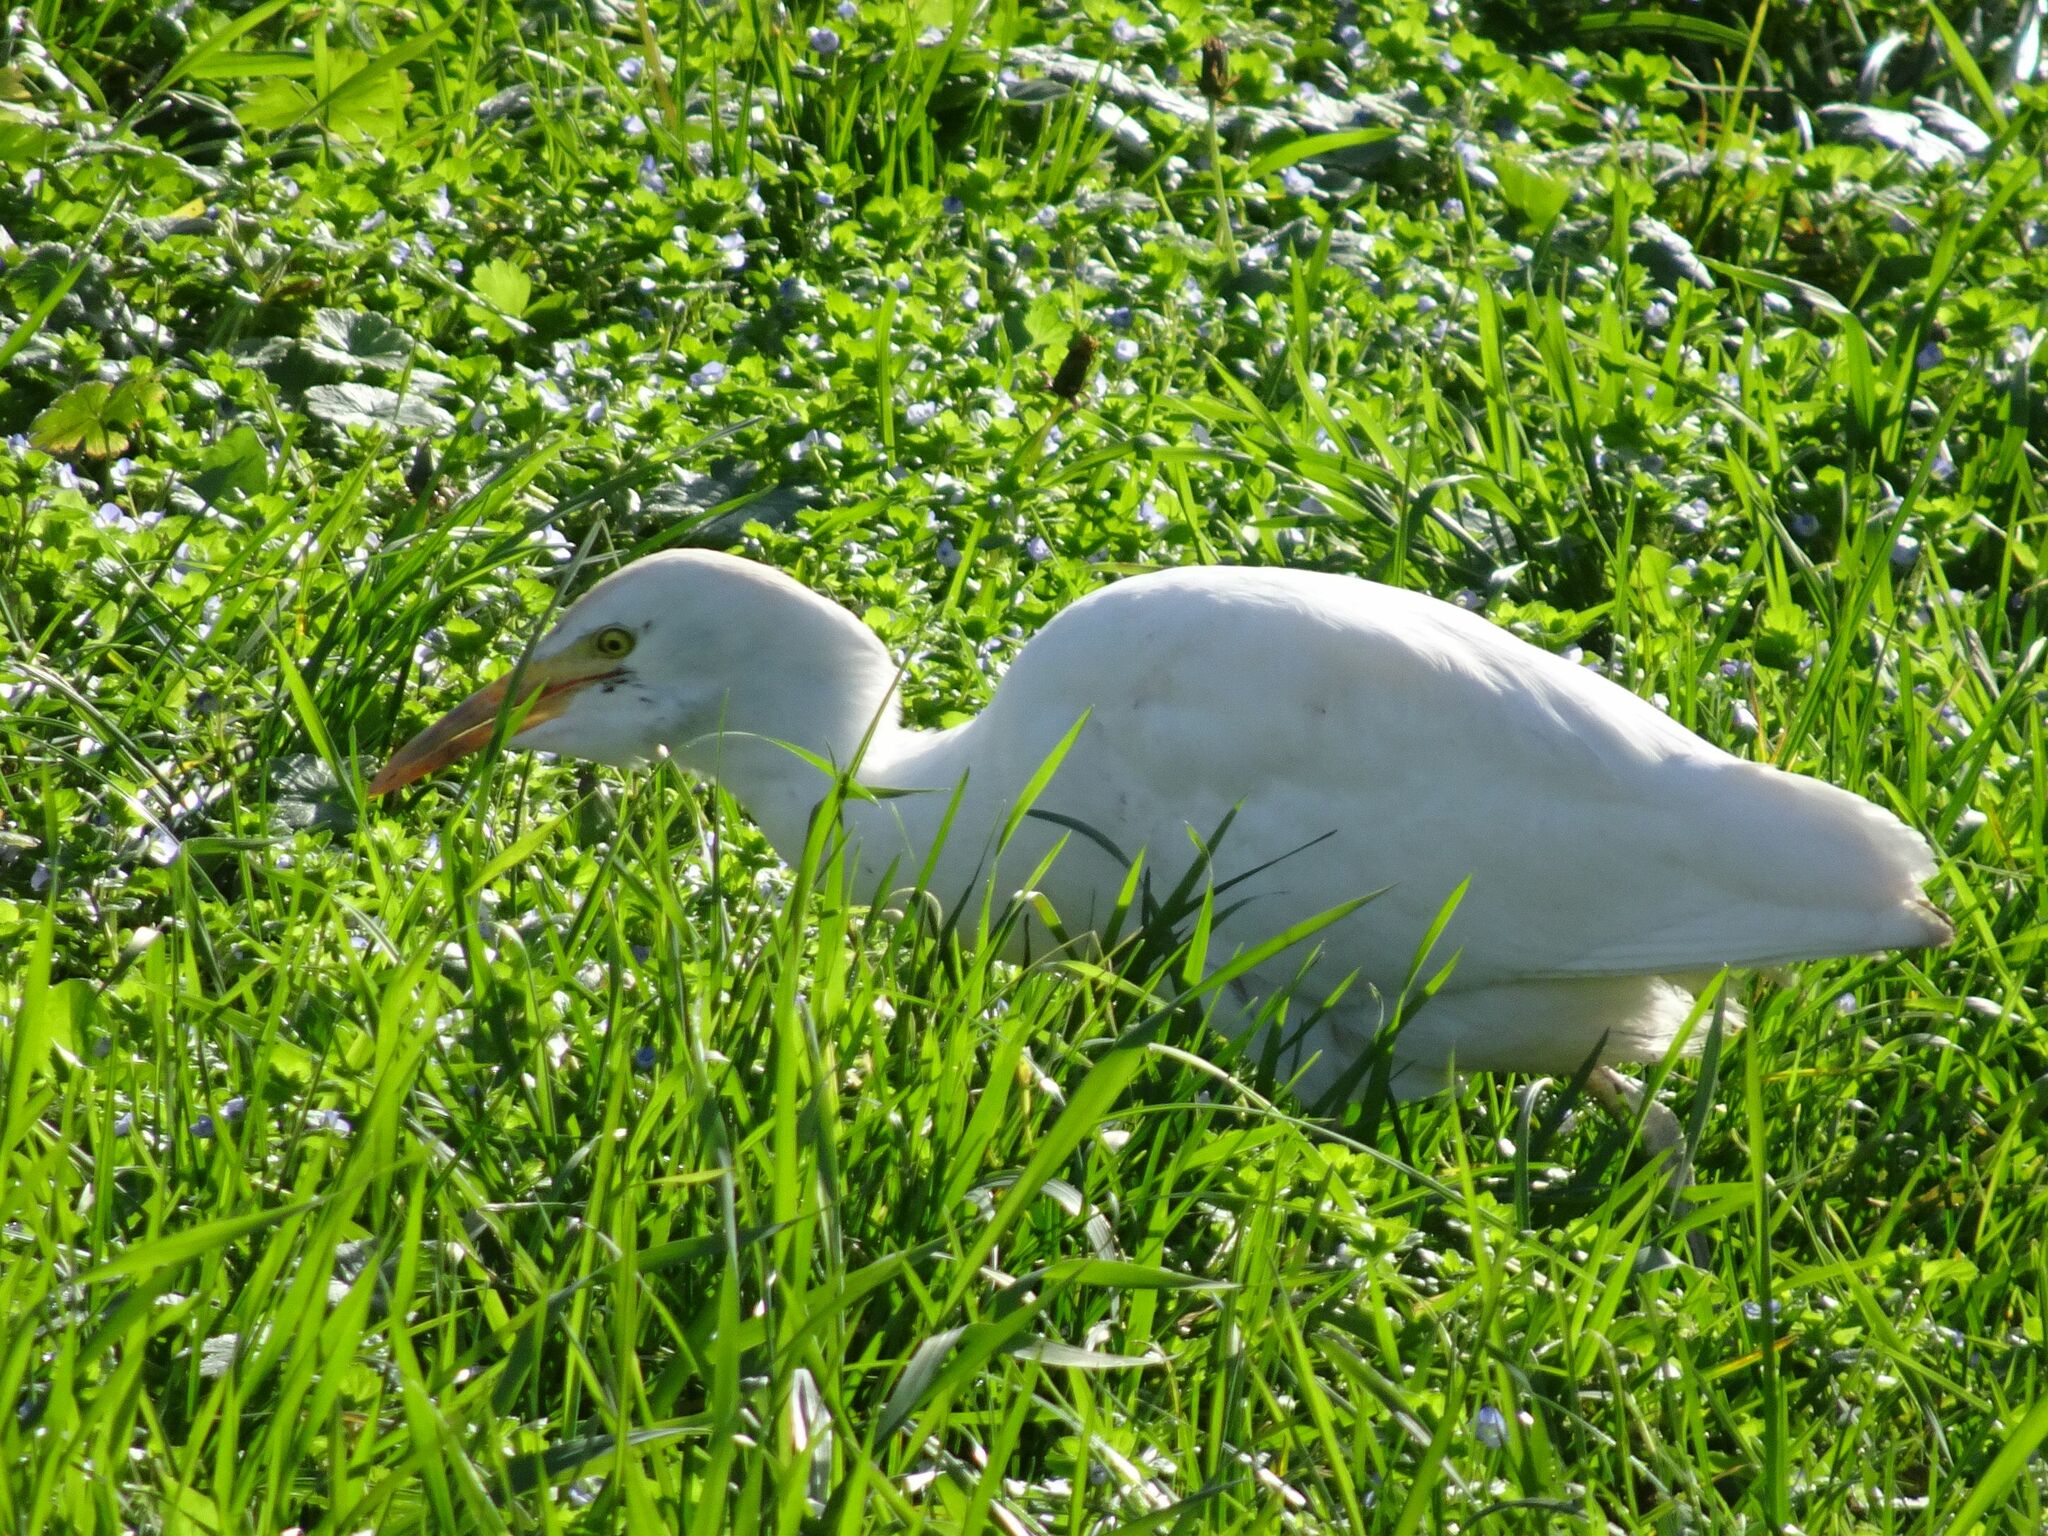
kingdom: Animalia
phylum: Chordata
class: Aves
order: Pelecaniformes
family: Ardeidae
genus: Bubulcus
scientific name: Bubulcus ibis
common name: Cattle egret
